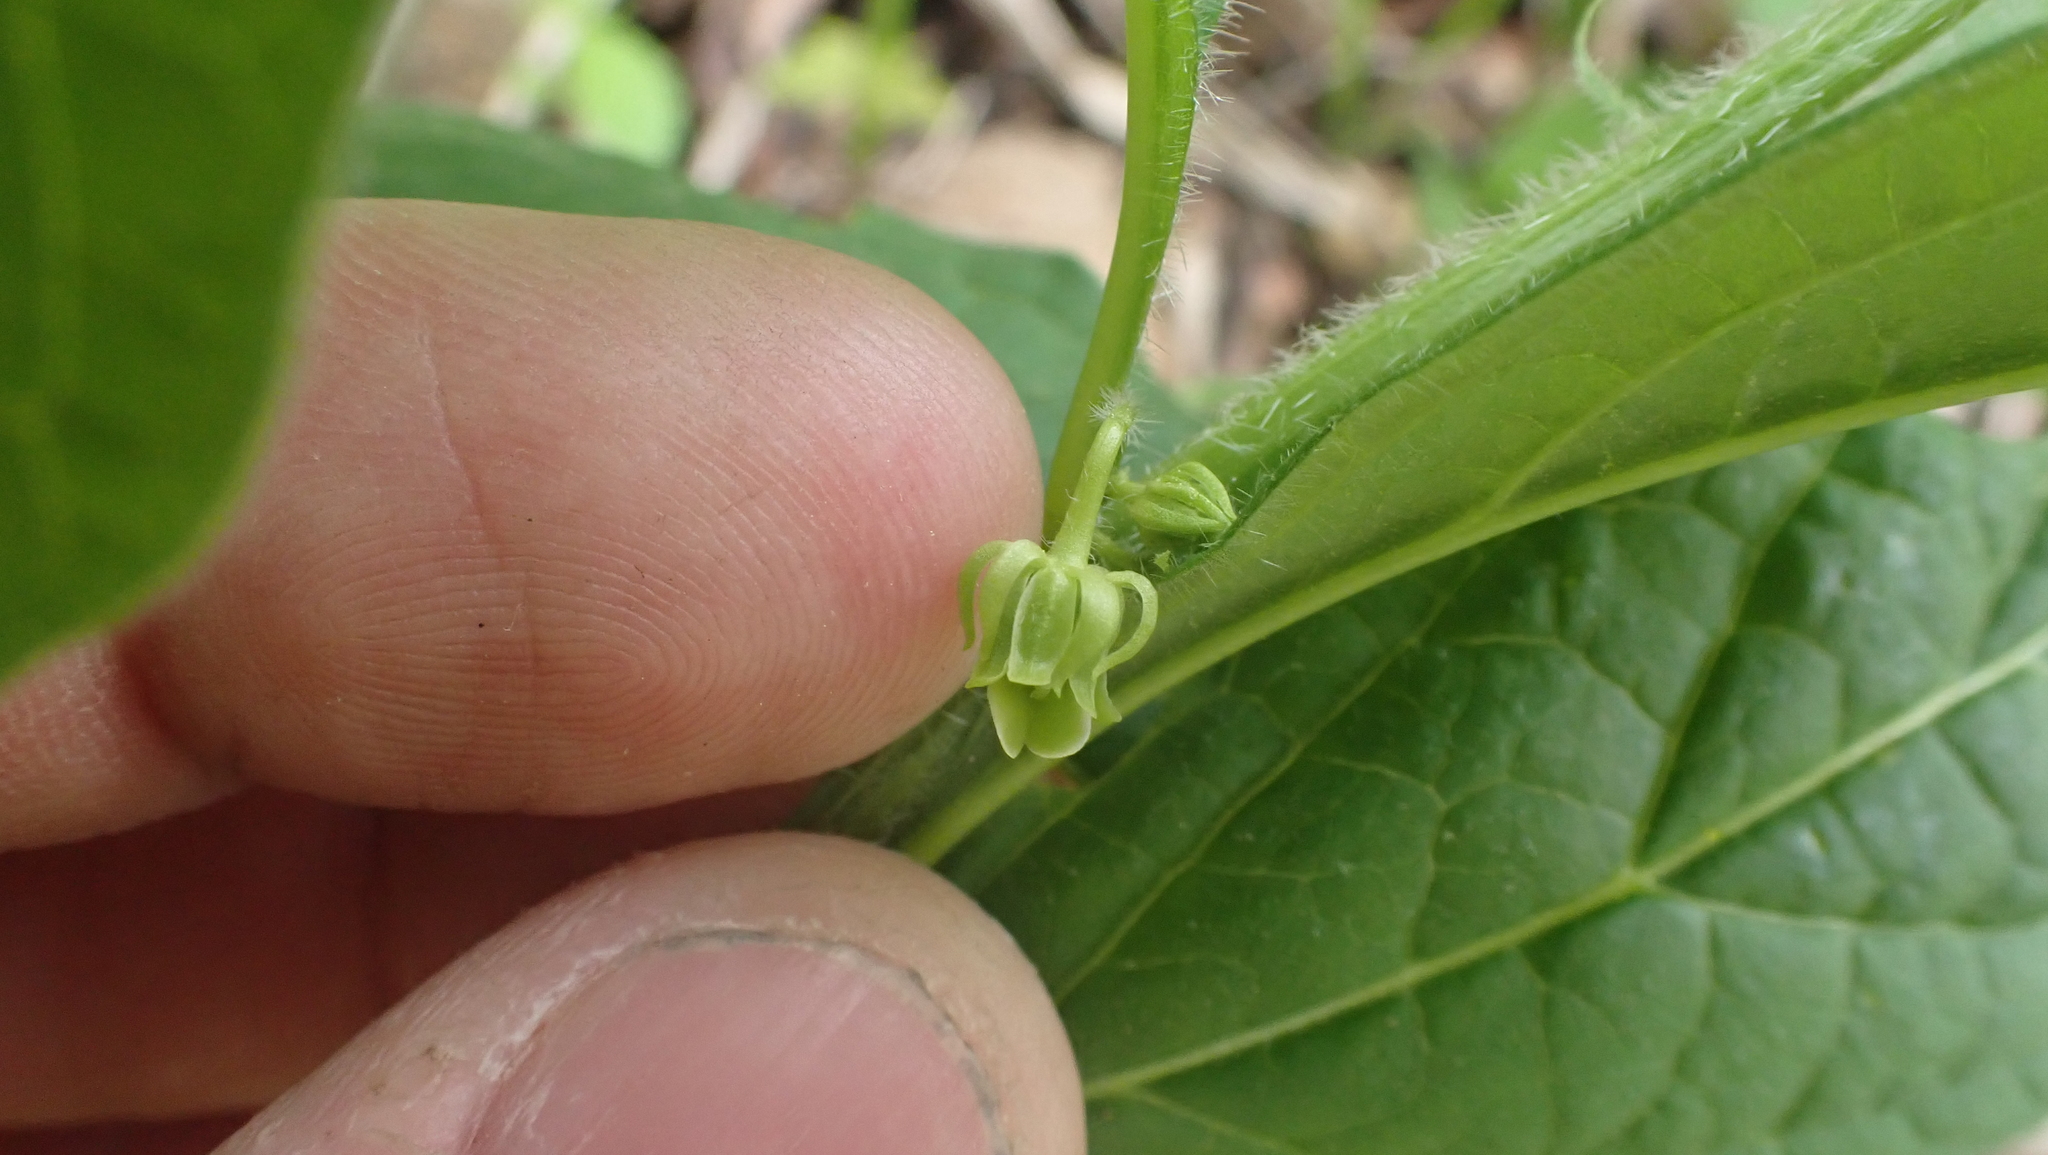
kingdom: Plantae
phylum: Tracheophyta
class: Magnoliopsida
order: Malpighiales
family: Violaceae
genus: Cubelium
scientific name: Cubelium concolor
